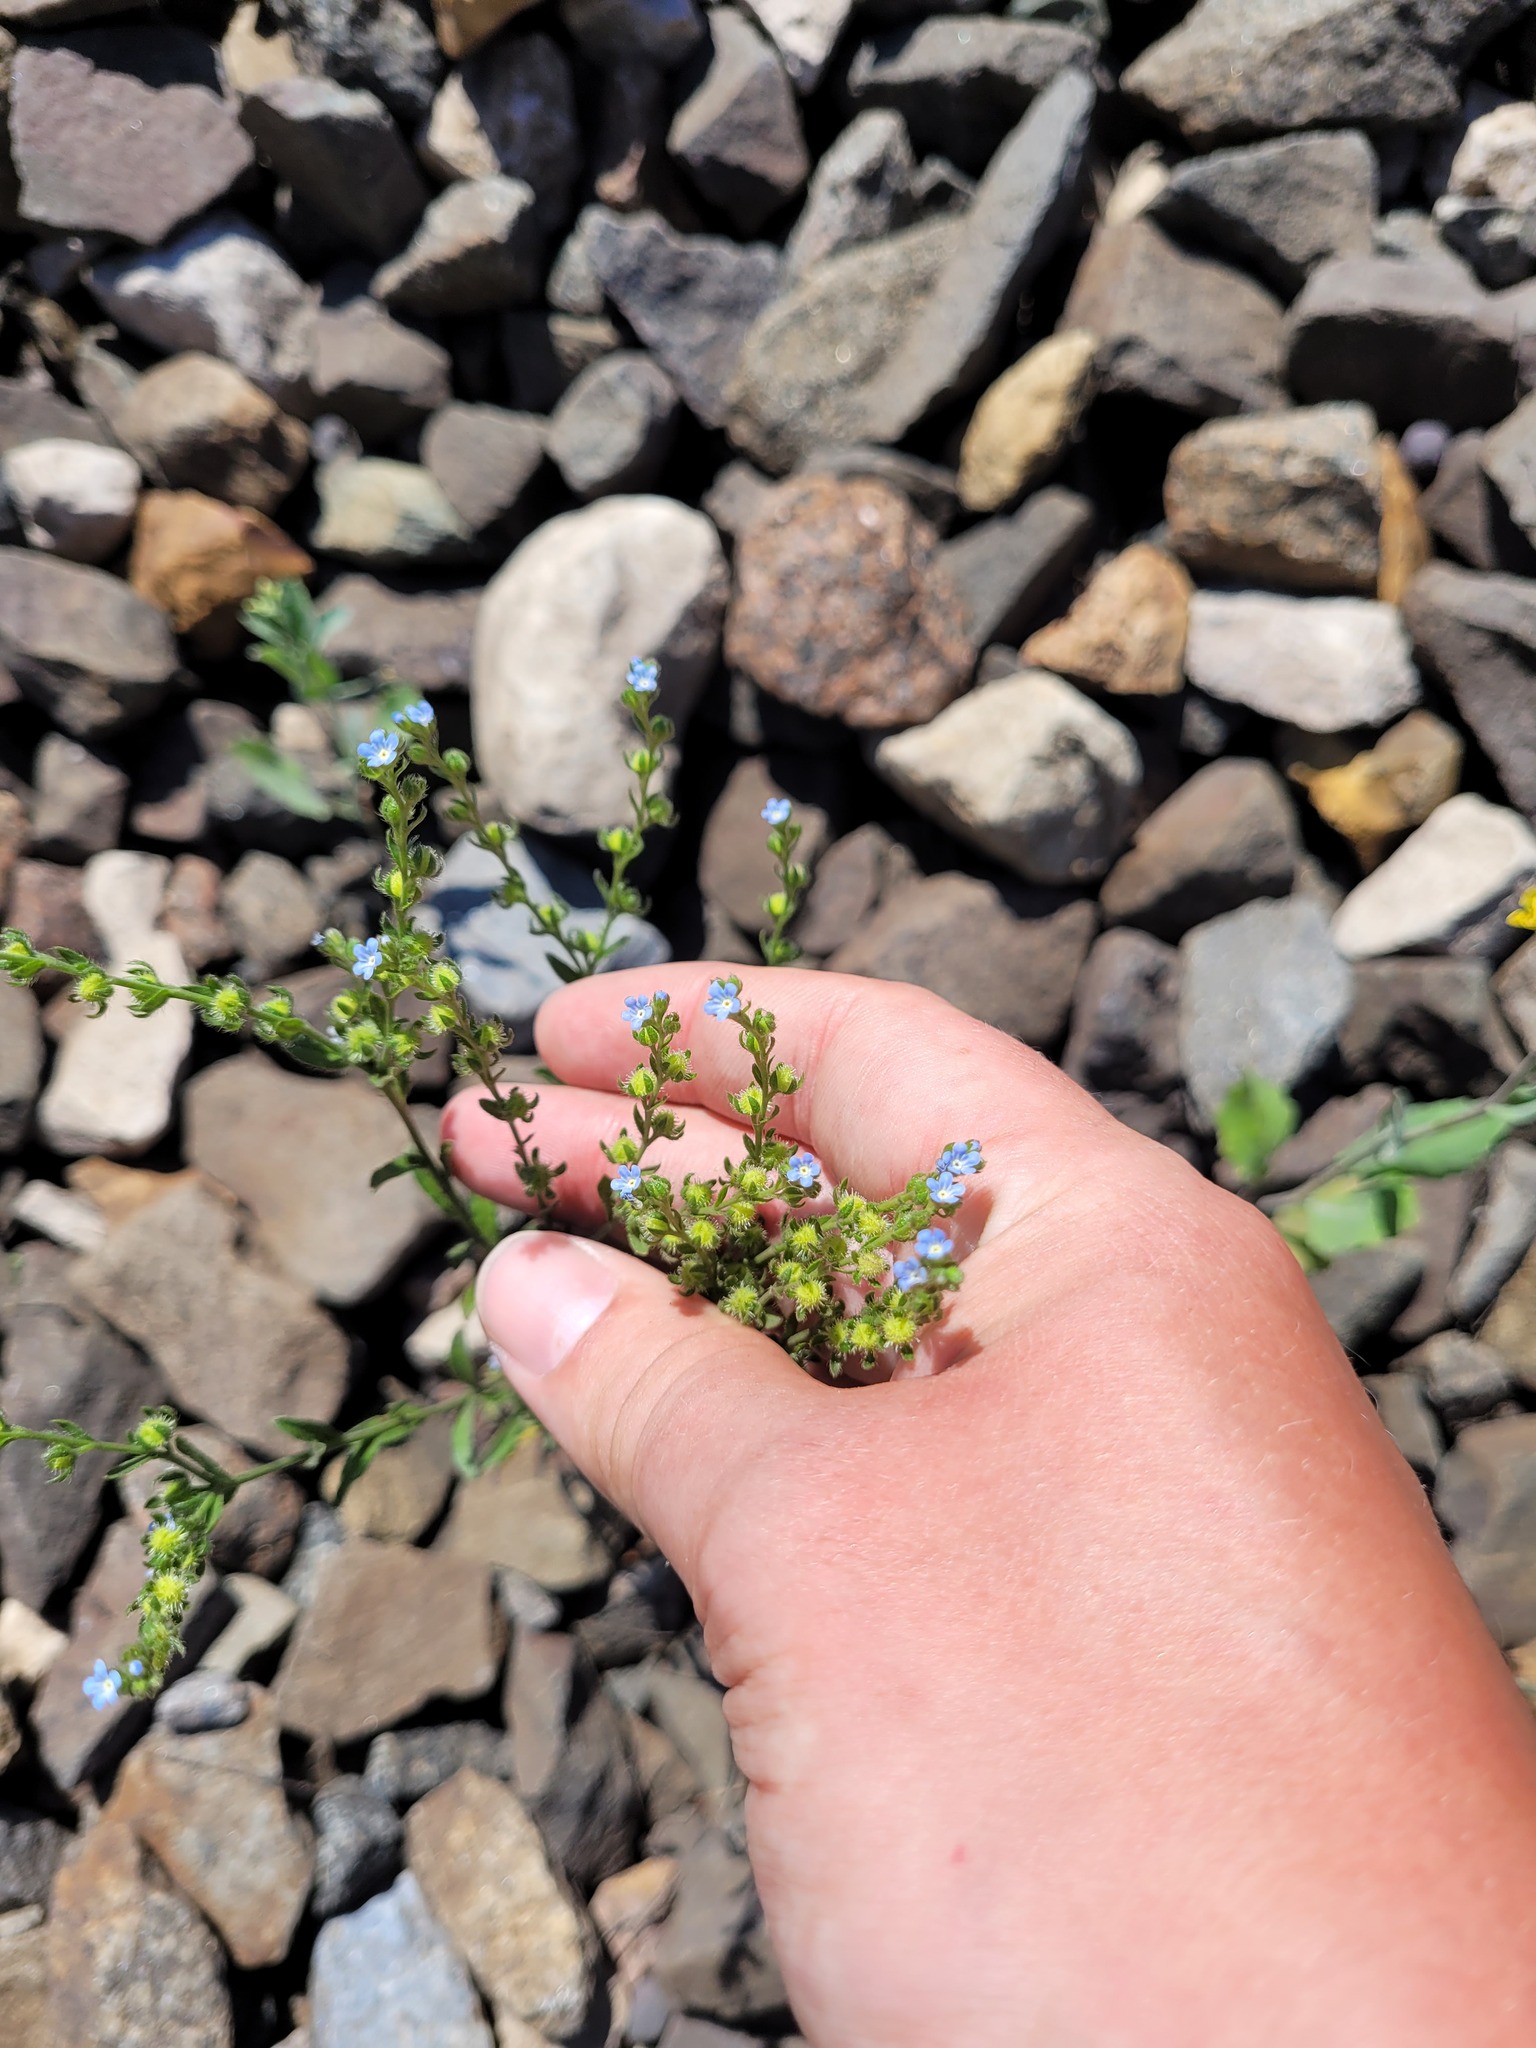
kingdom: Plantae
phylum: Tracheophyta
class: Magnoliopsida
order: Boraginales
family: Boraginaceae
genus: Lappula
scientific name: Lappula squarrosa
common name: European stickseed
